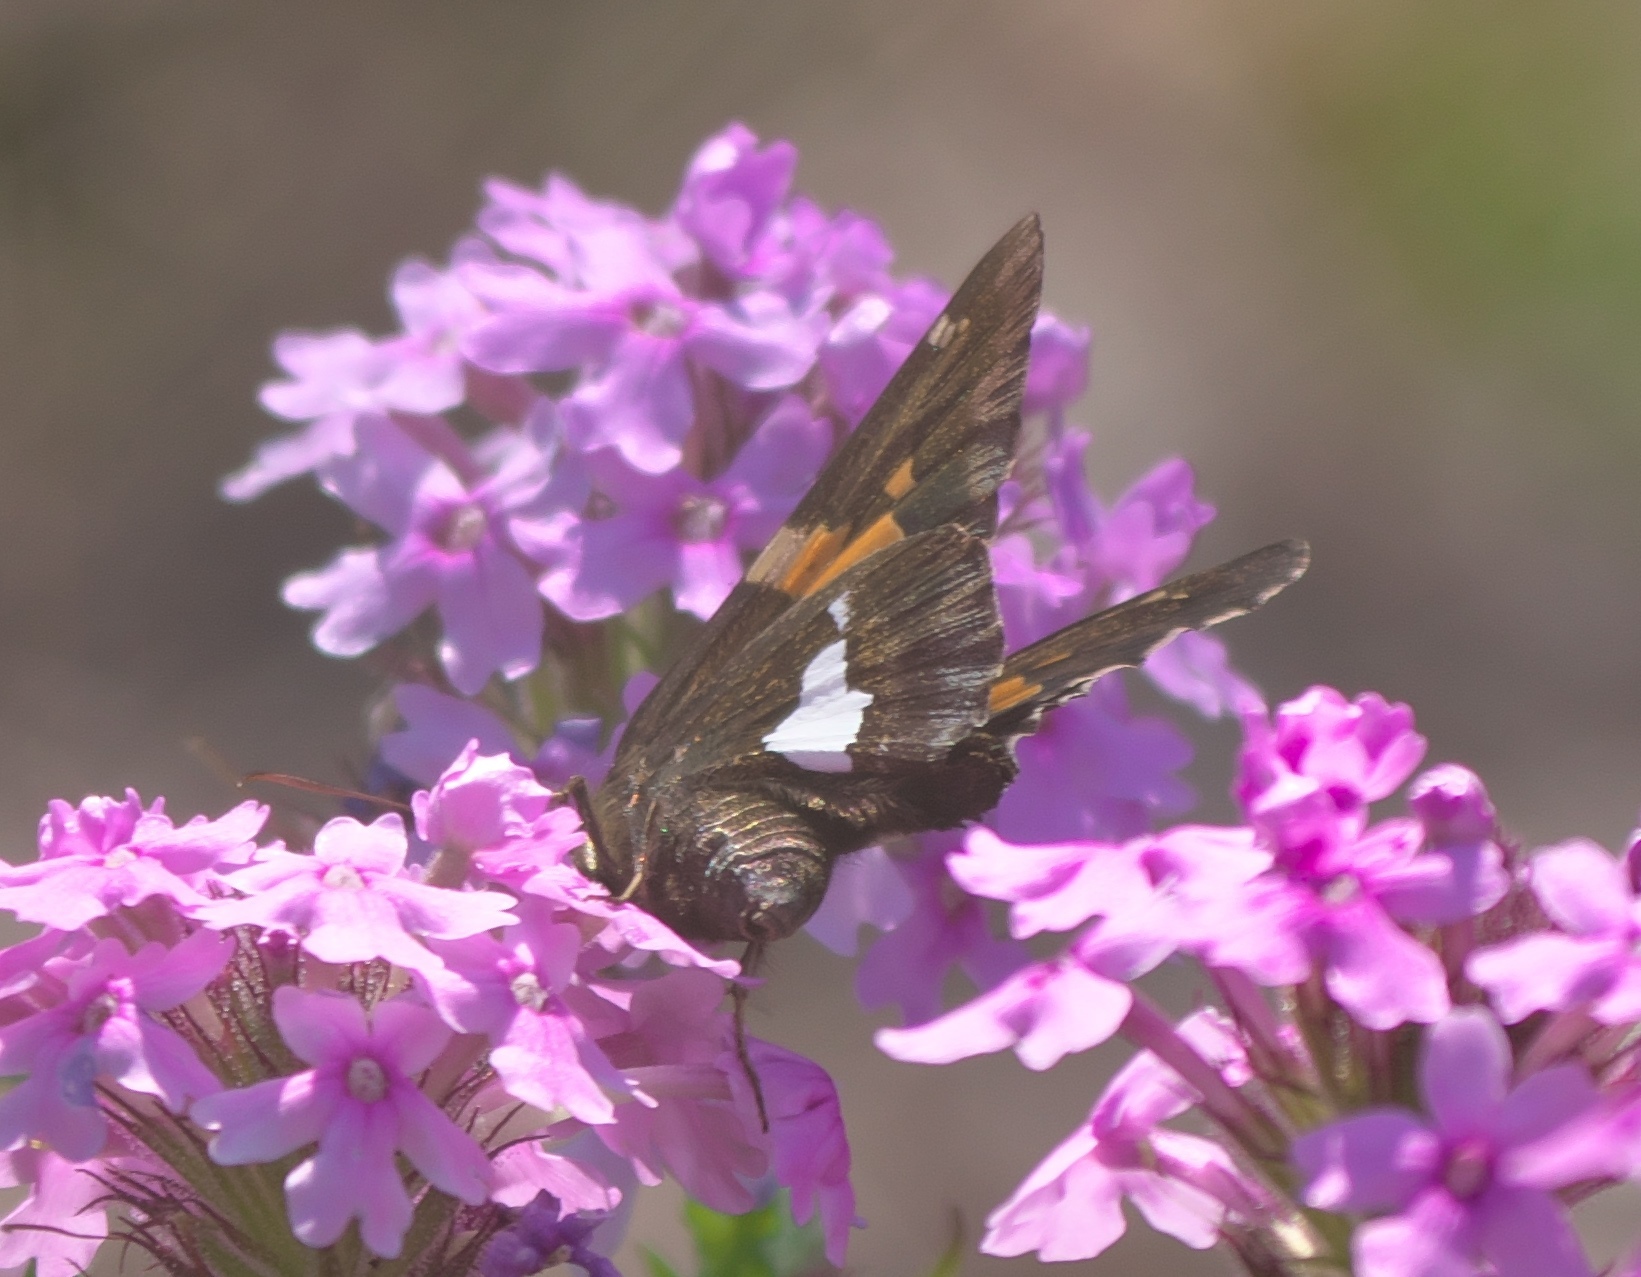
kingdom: Animalia
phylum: Arthropoda
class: Insecta
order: Lepidoptera
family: Hesperiidae
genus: Epargyreus
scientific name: Epargyreus clarus
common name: Silver-spotted skipper
